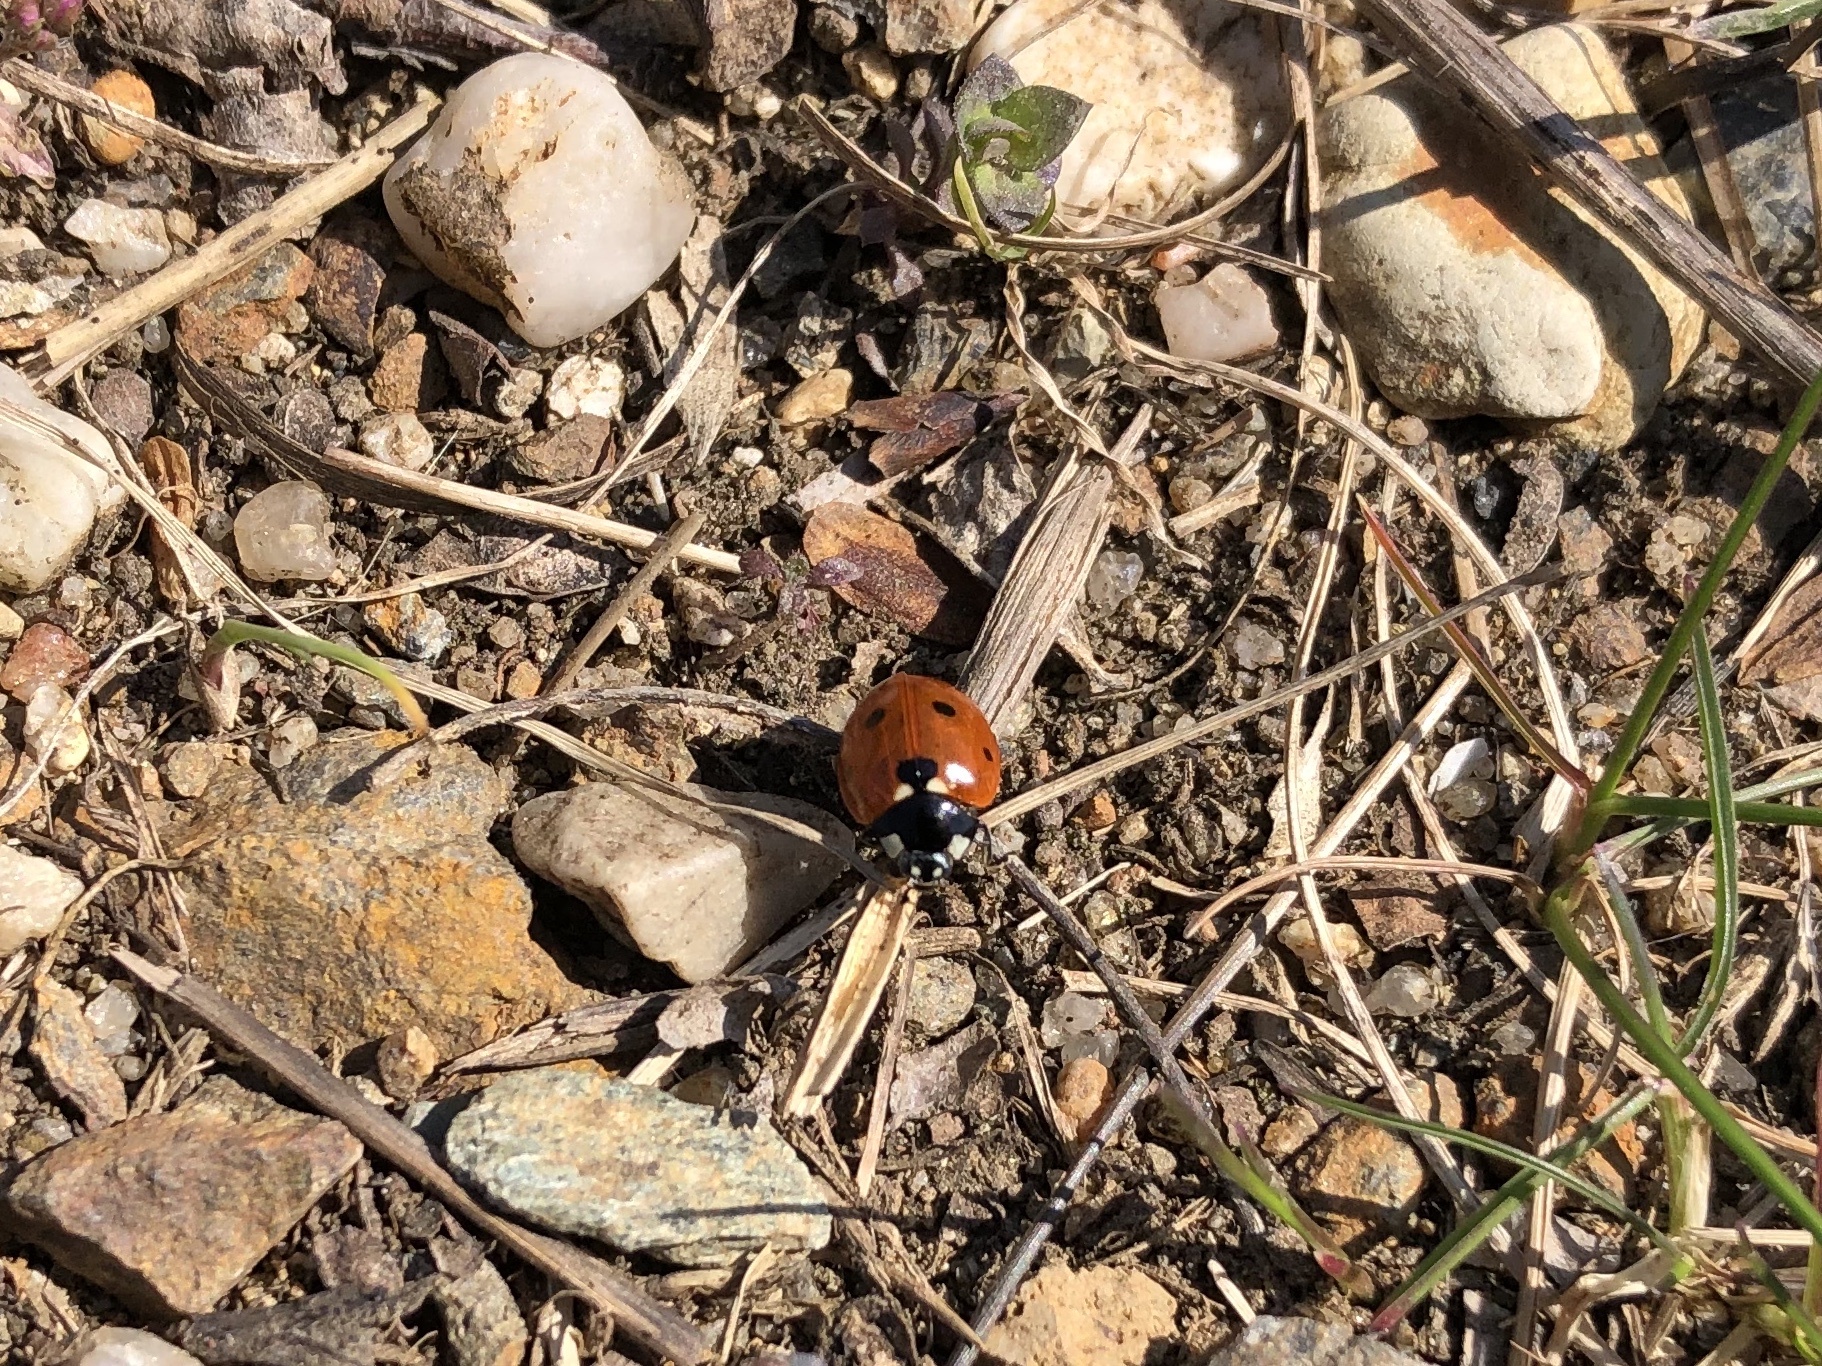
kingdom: Animalia
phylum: Arthropoda
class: Insecta
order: Coleoptera
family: Coccinellidae
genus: Coccinella
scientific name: Coccinella septempunctata
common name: Sevenspotted lady beetle
